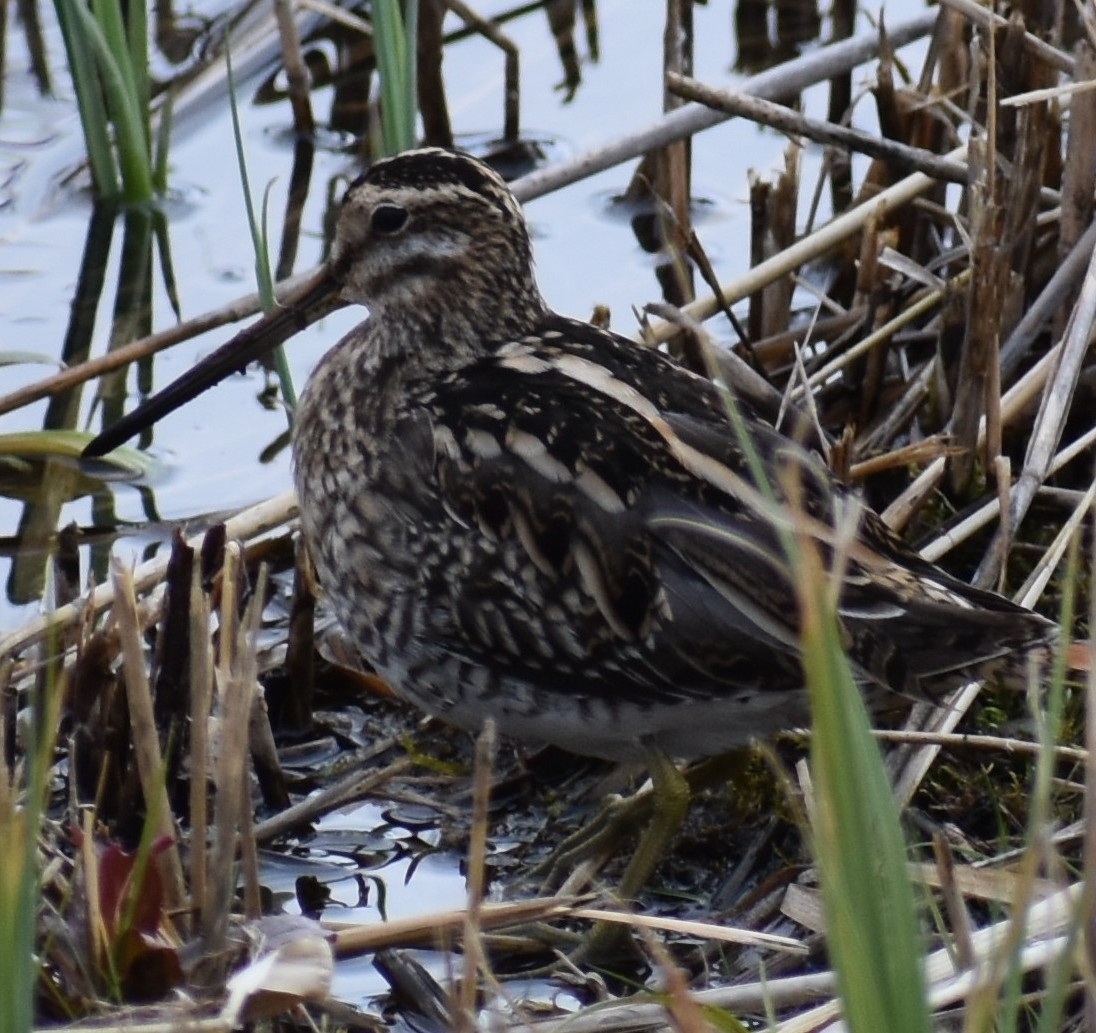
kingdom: Animalia
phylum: Chordata
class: Aves
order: Charadriiformes
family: Scolopacidae
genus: Gallinago
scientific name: Gallinago gallinago
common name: Common snipe
